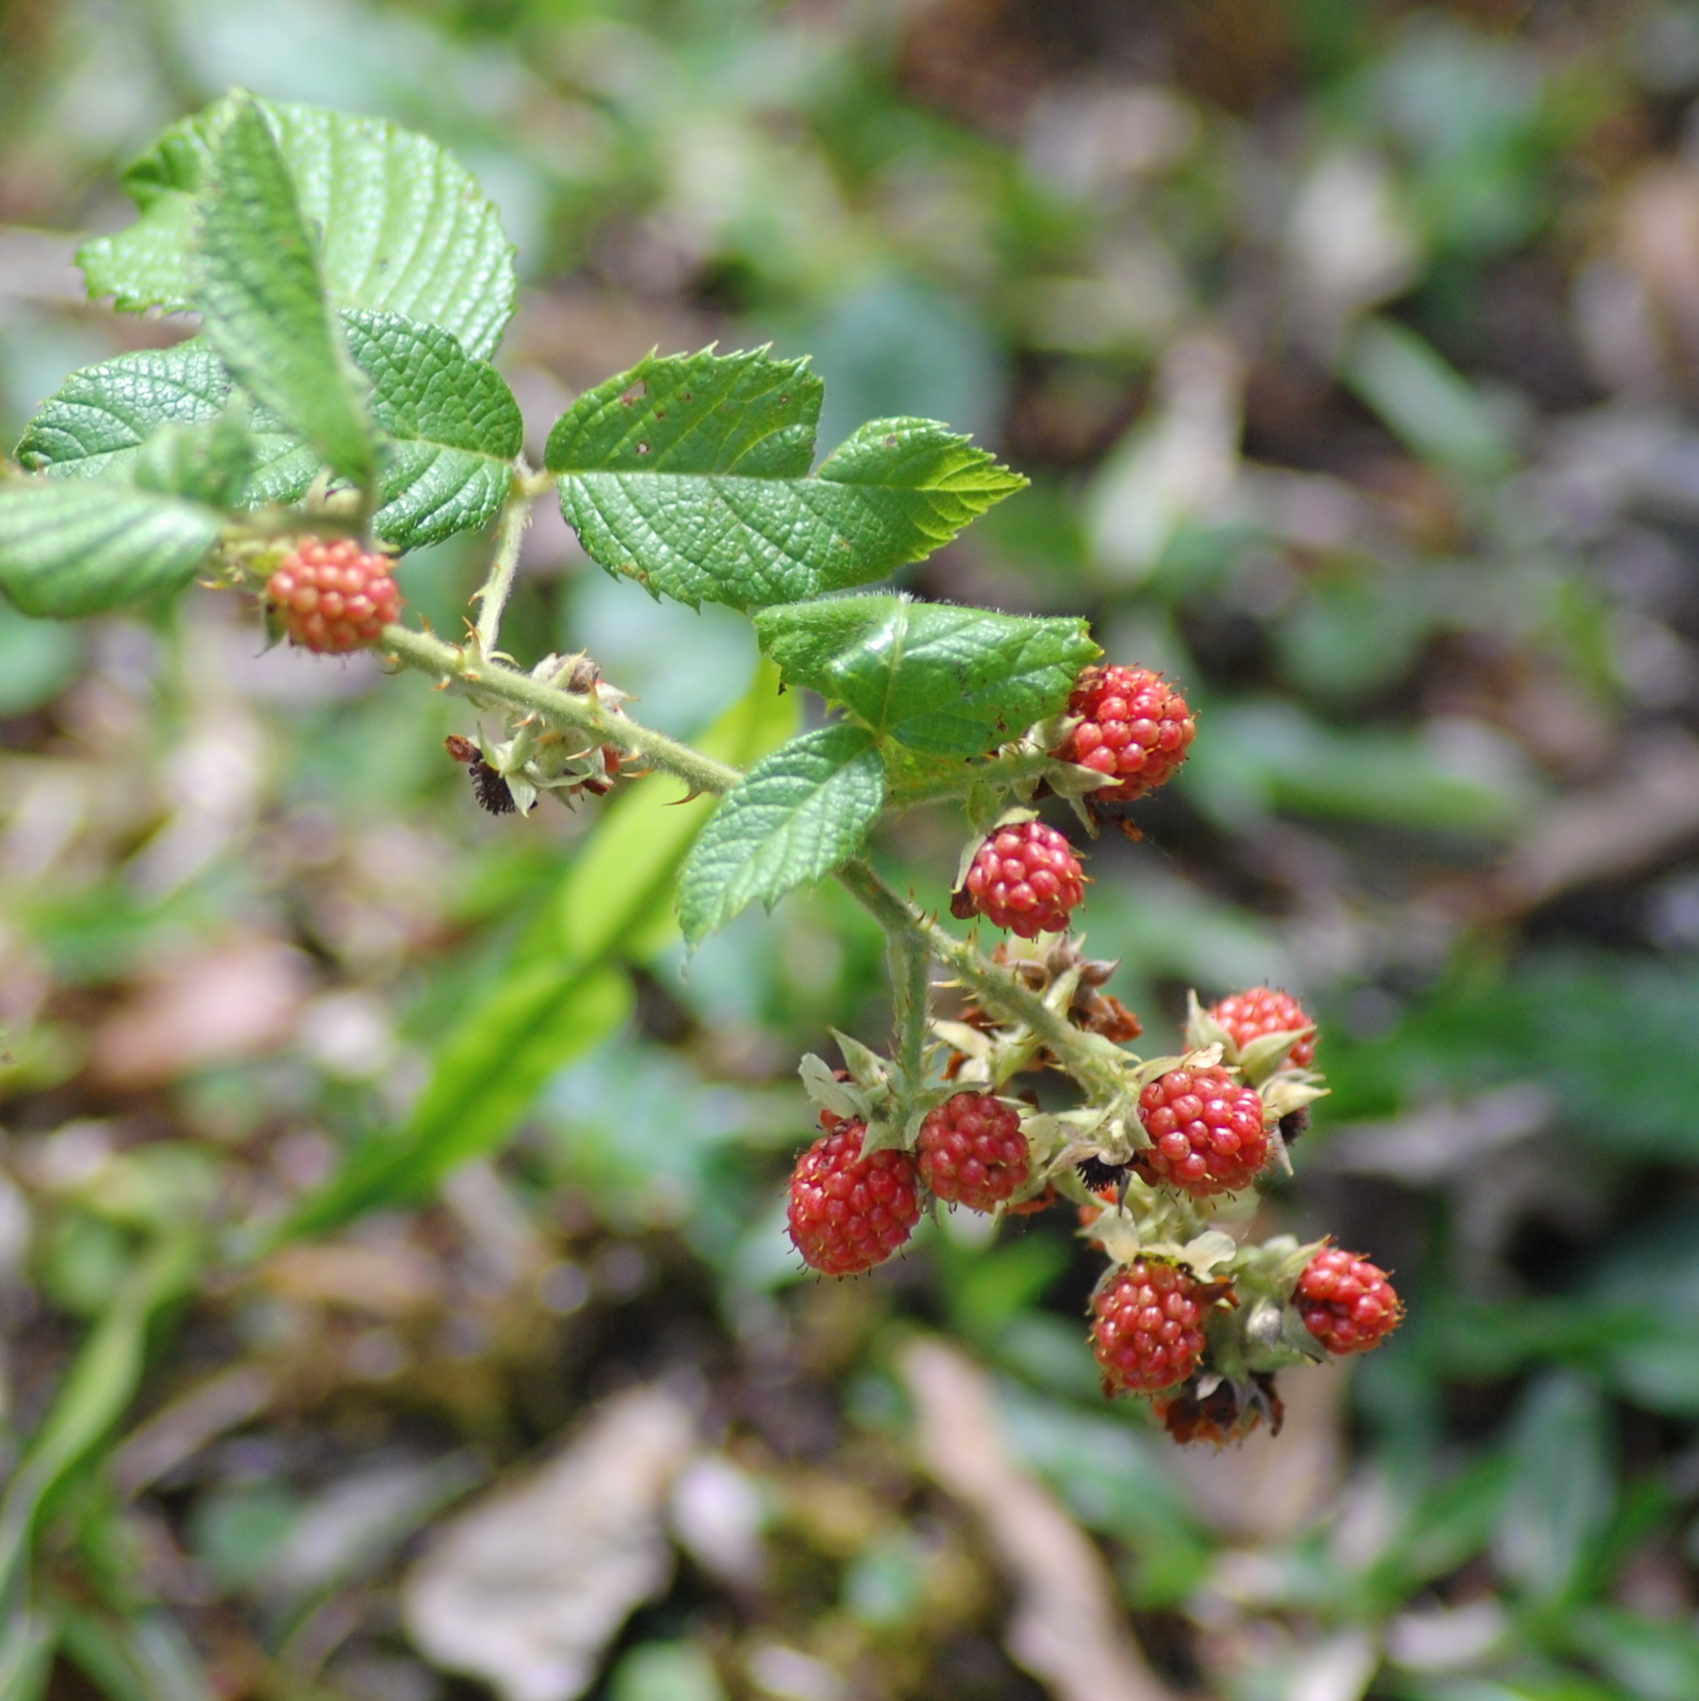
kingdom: Plantae
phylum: Tracheophyta
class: Magnoliopsida
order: Rosales
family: Rosaceae
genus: Rubus
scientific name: Rubus sellowii
